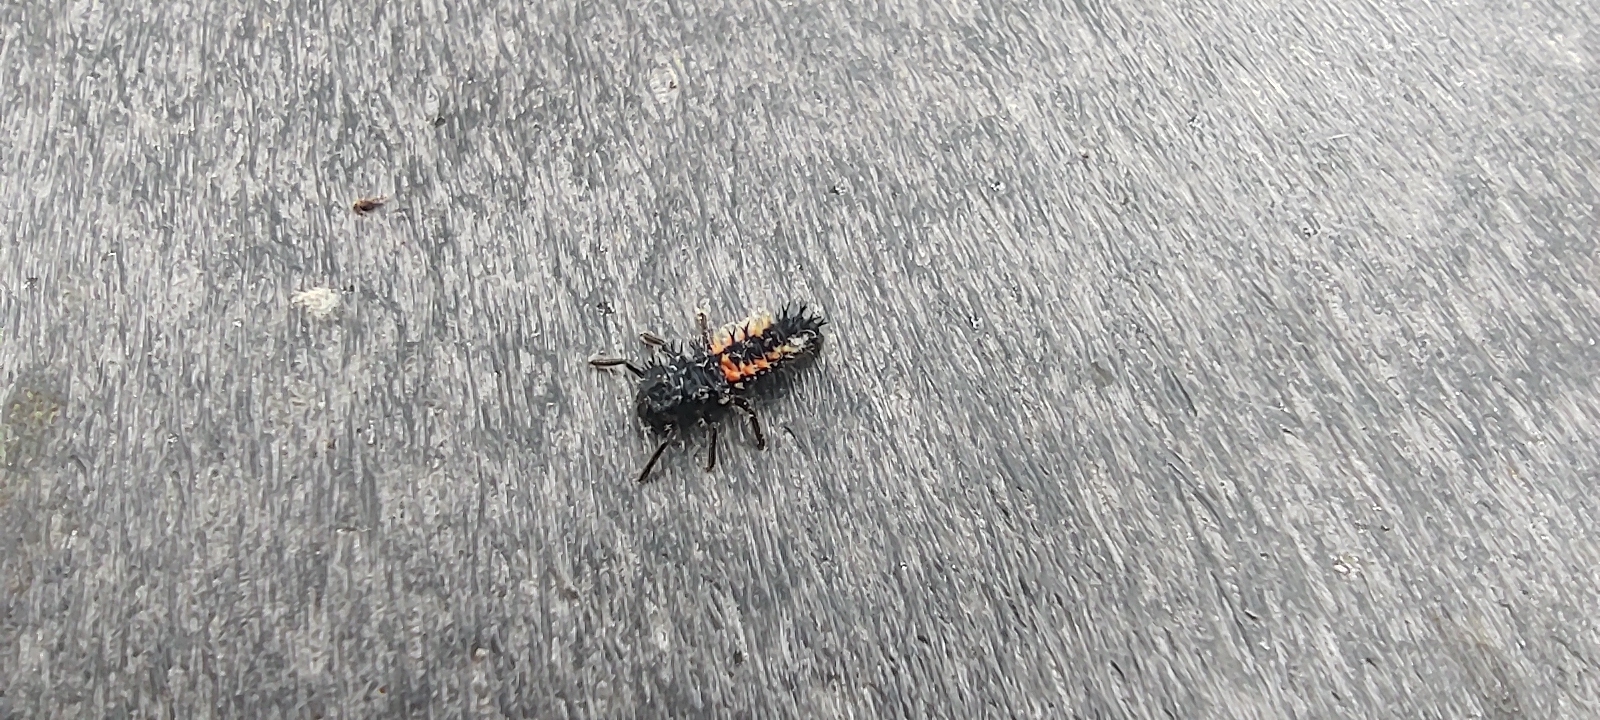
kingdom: Animalia
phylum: Arthropoda
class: Insecta
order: Coleoptera
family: Coccinellidae
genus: Harmonia
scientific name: Harmonia axyridis
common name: Harlequin ladybird
